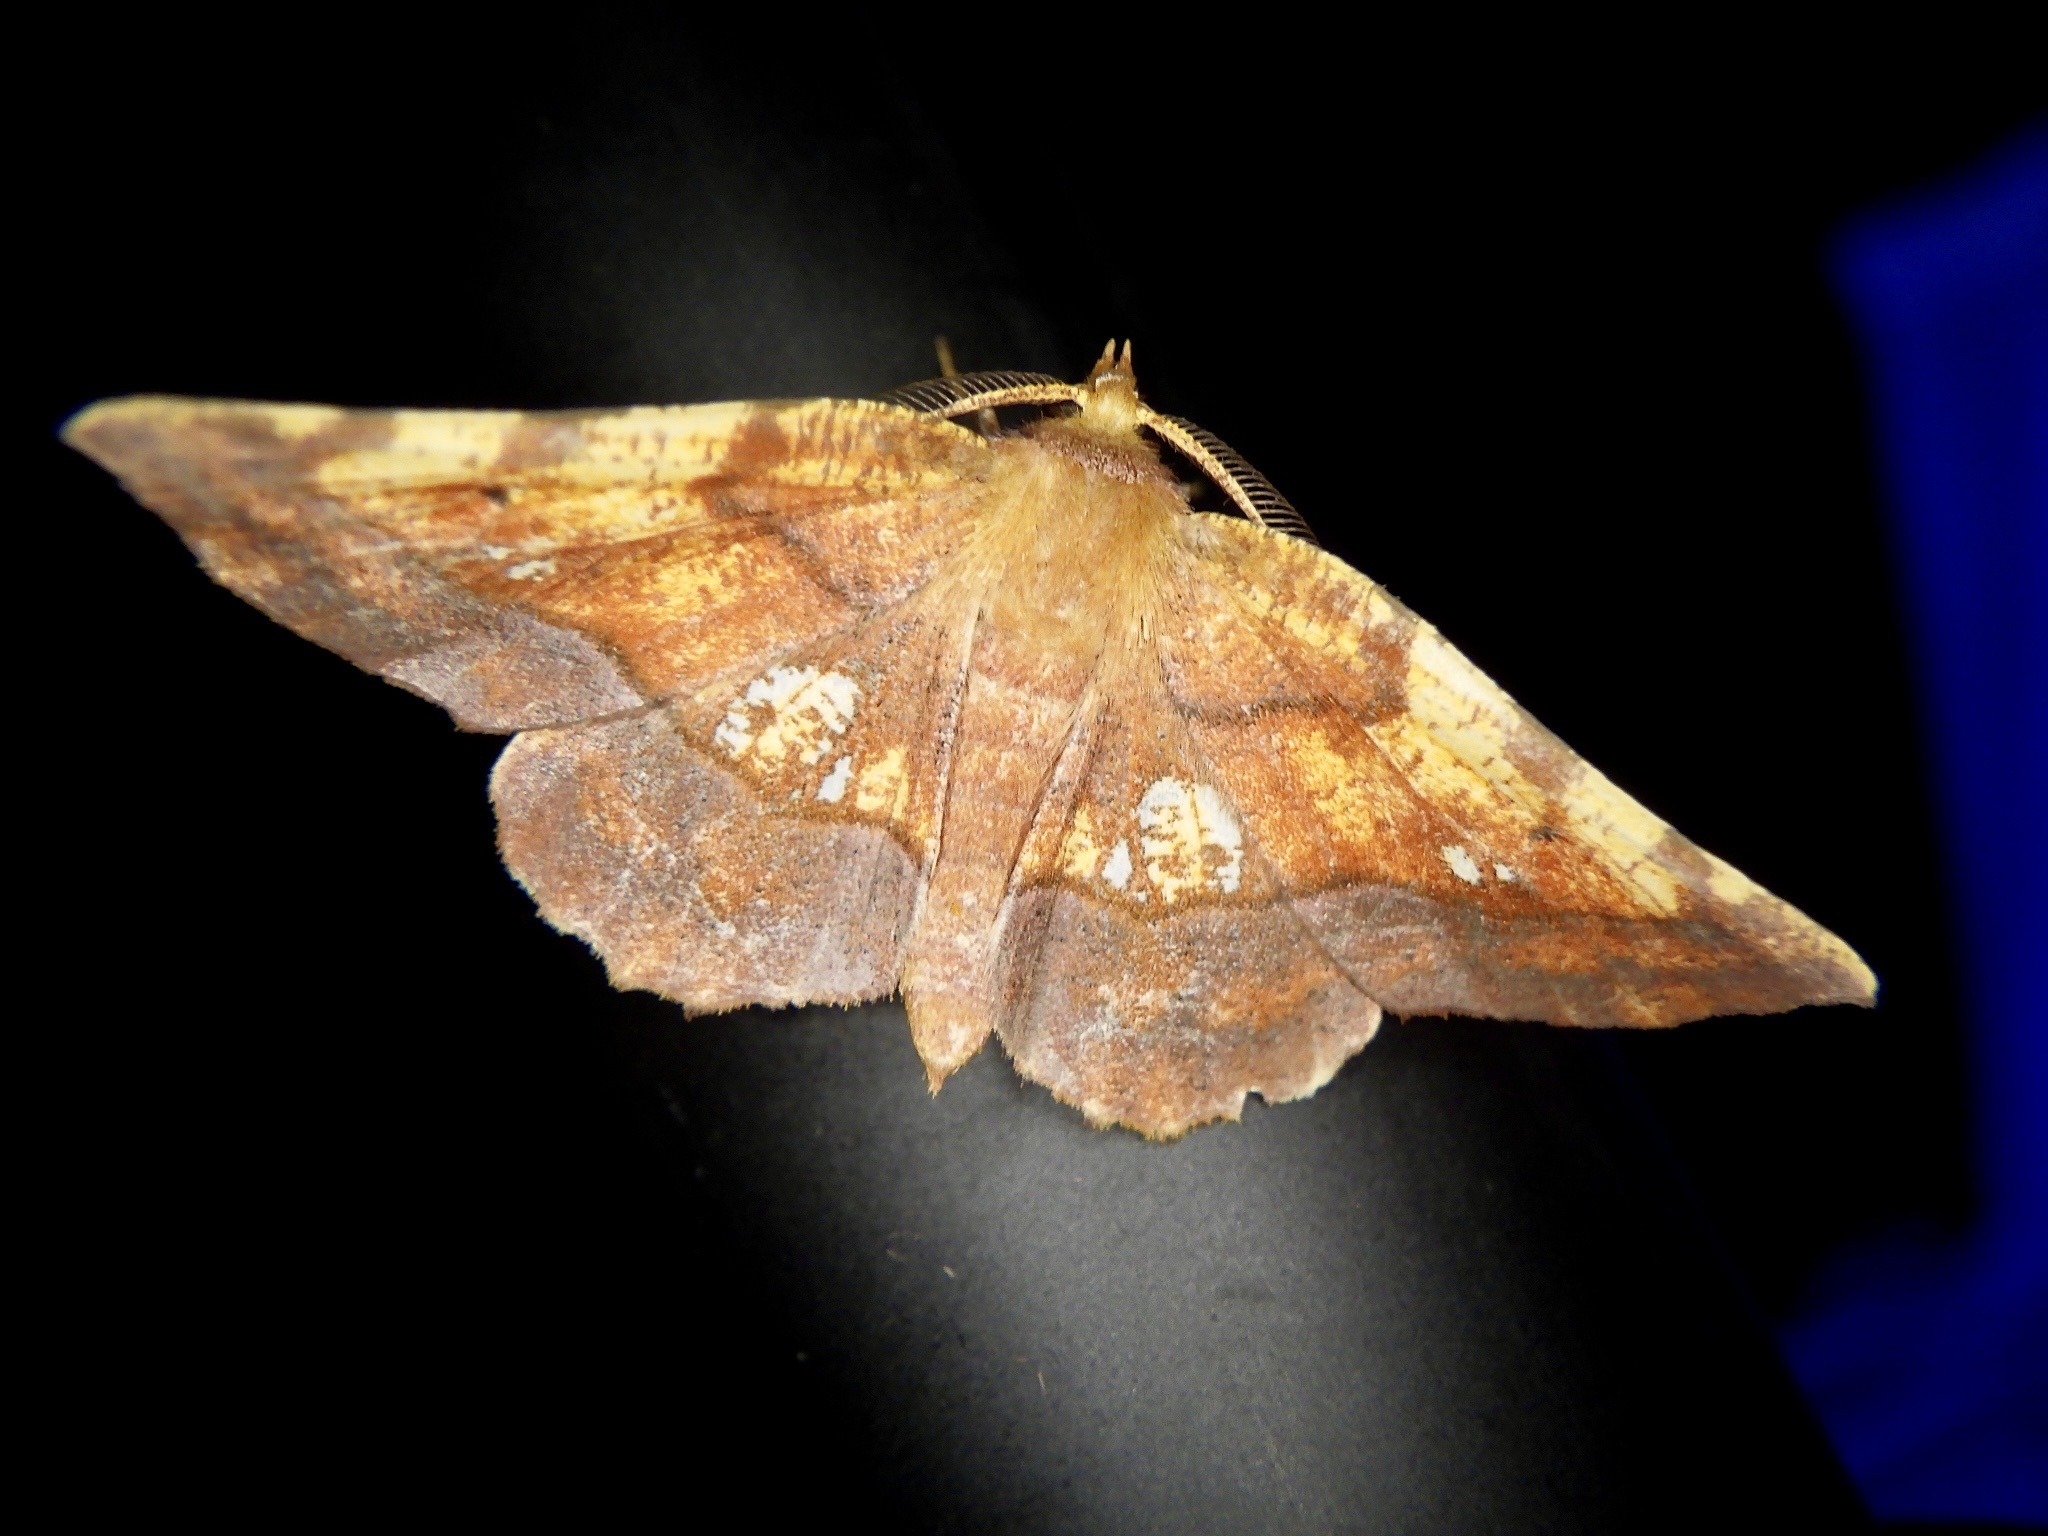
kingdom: Animalia
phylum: Arthropoda
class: Insecta
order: Lepidoptera
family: Geometridae
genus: Garaeus
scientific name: Garaeus specularis
